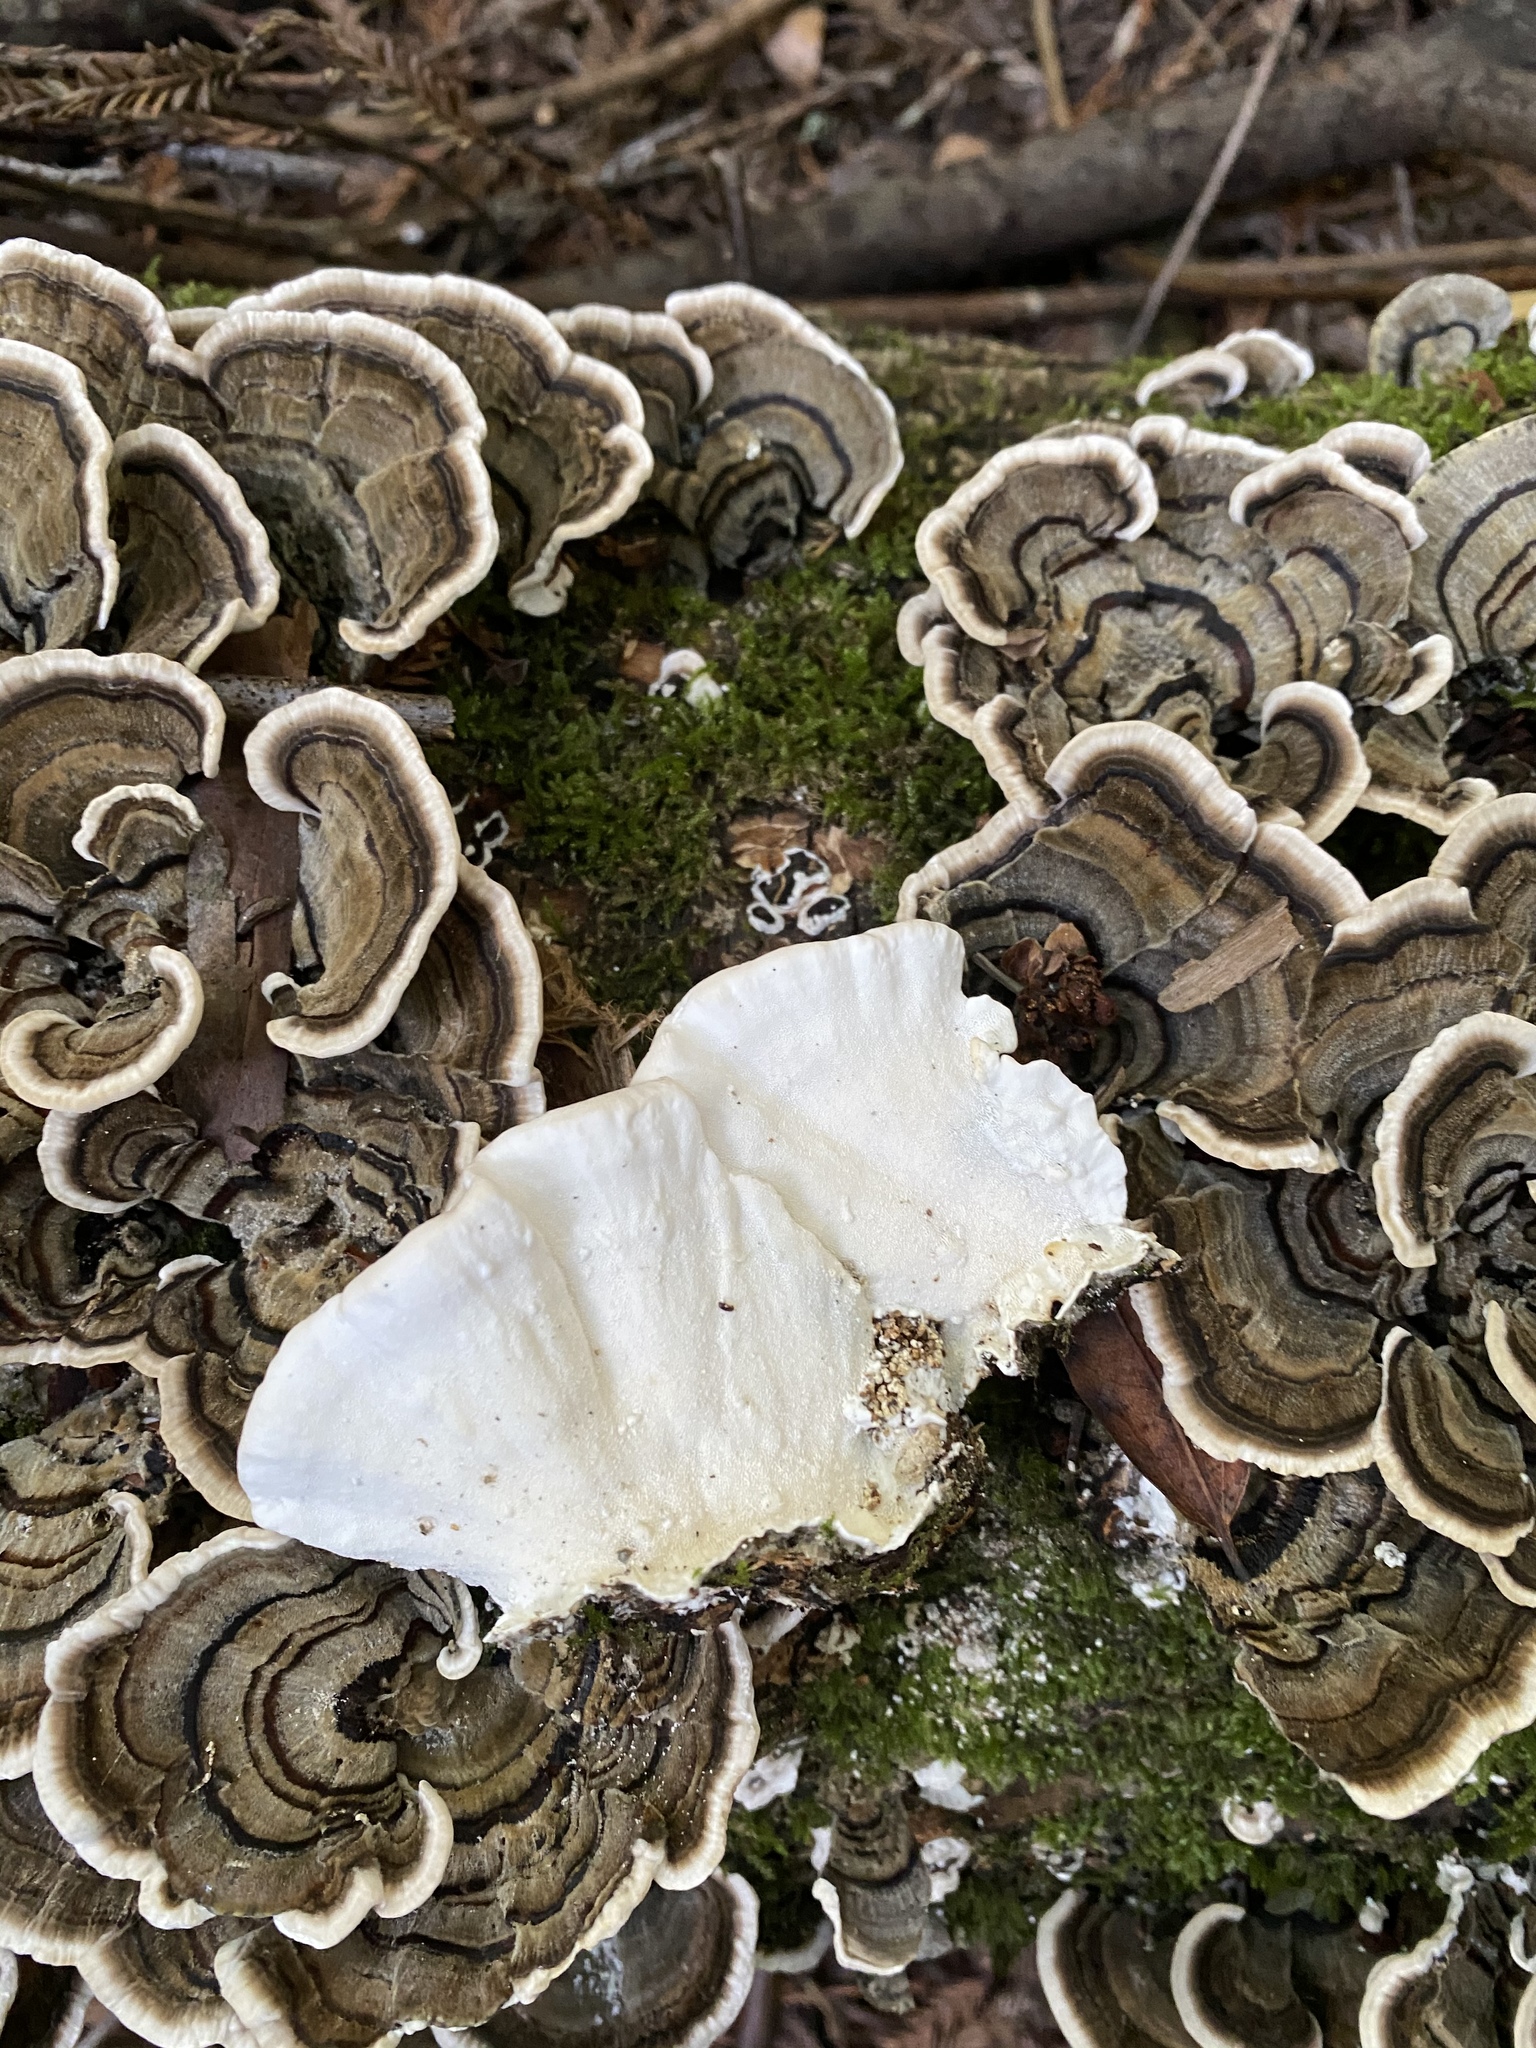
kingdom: Fungi
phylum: Basidiomycota
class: Agaricomycetes
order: Polyporales
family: Polyporaceae
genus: Trametes
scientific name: Trametes versicolor
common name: Turkeytail
